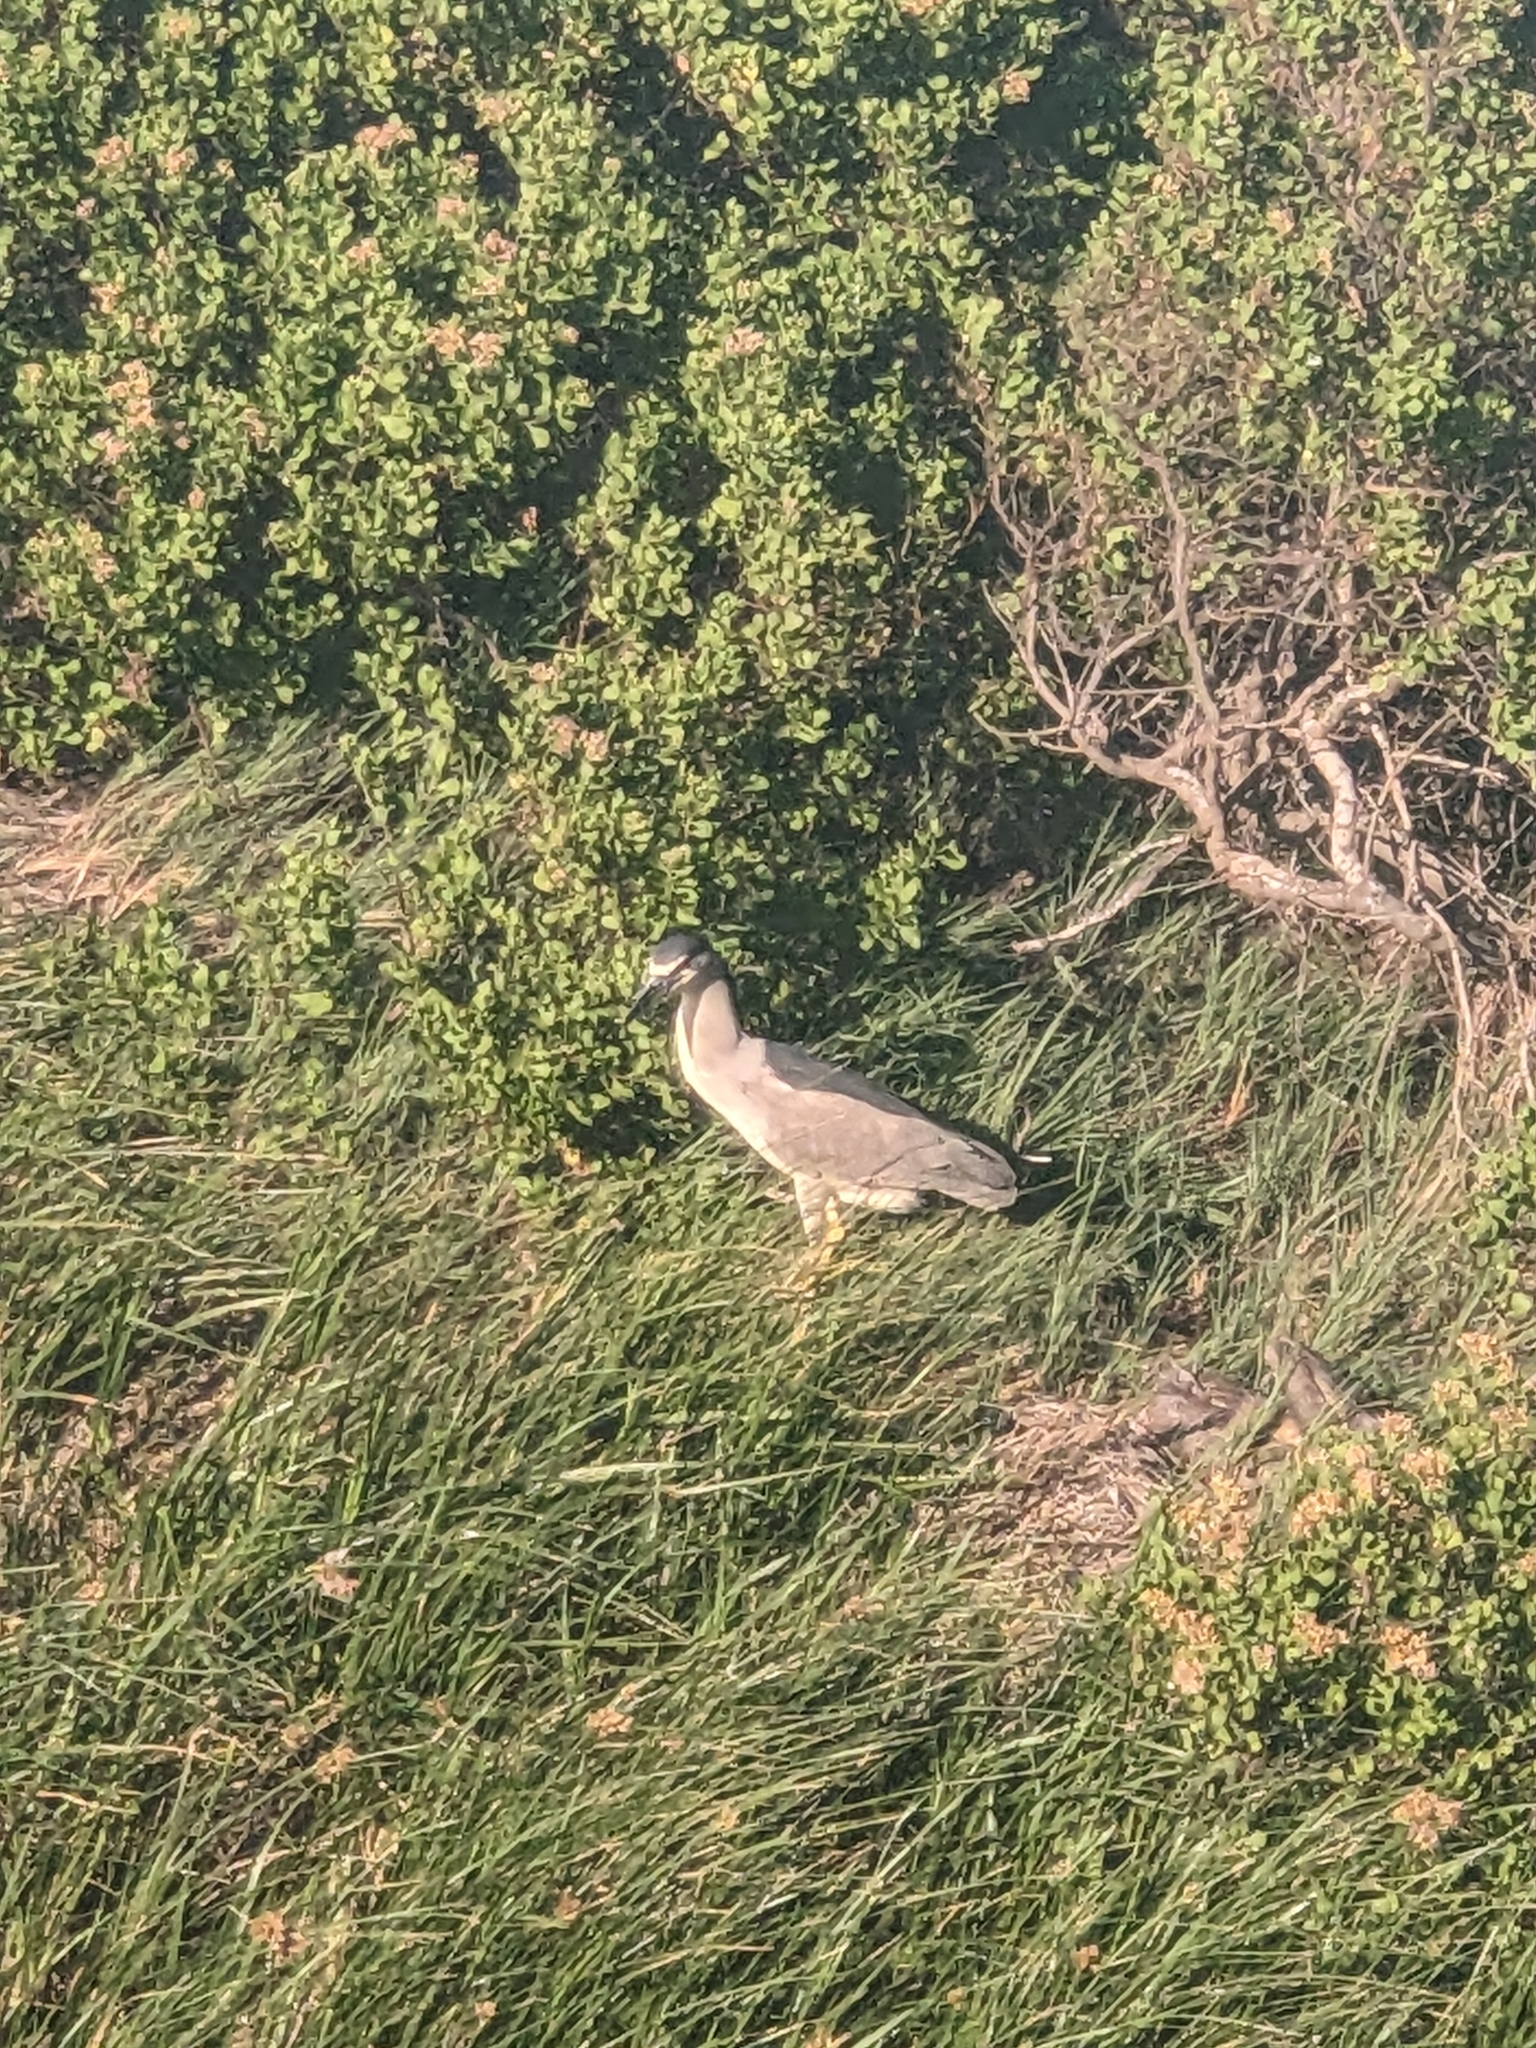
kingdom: Animalia
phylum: Chordata
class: Aves
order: Pelecaniformes
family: Ardeidae
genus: Nycticorax
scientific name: Nycticorax nycticorax
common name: Black-crowned night heron
